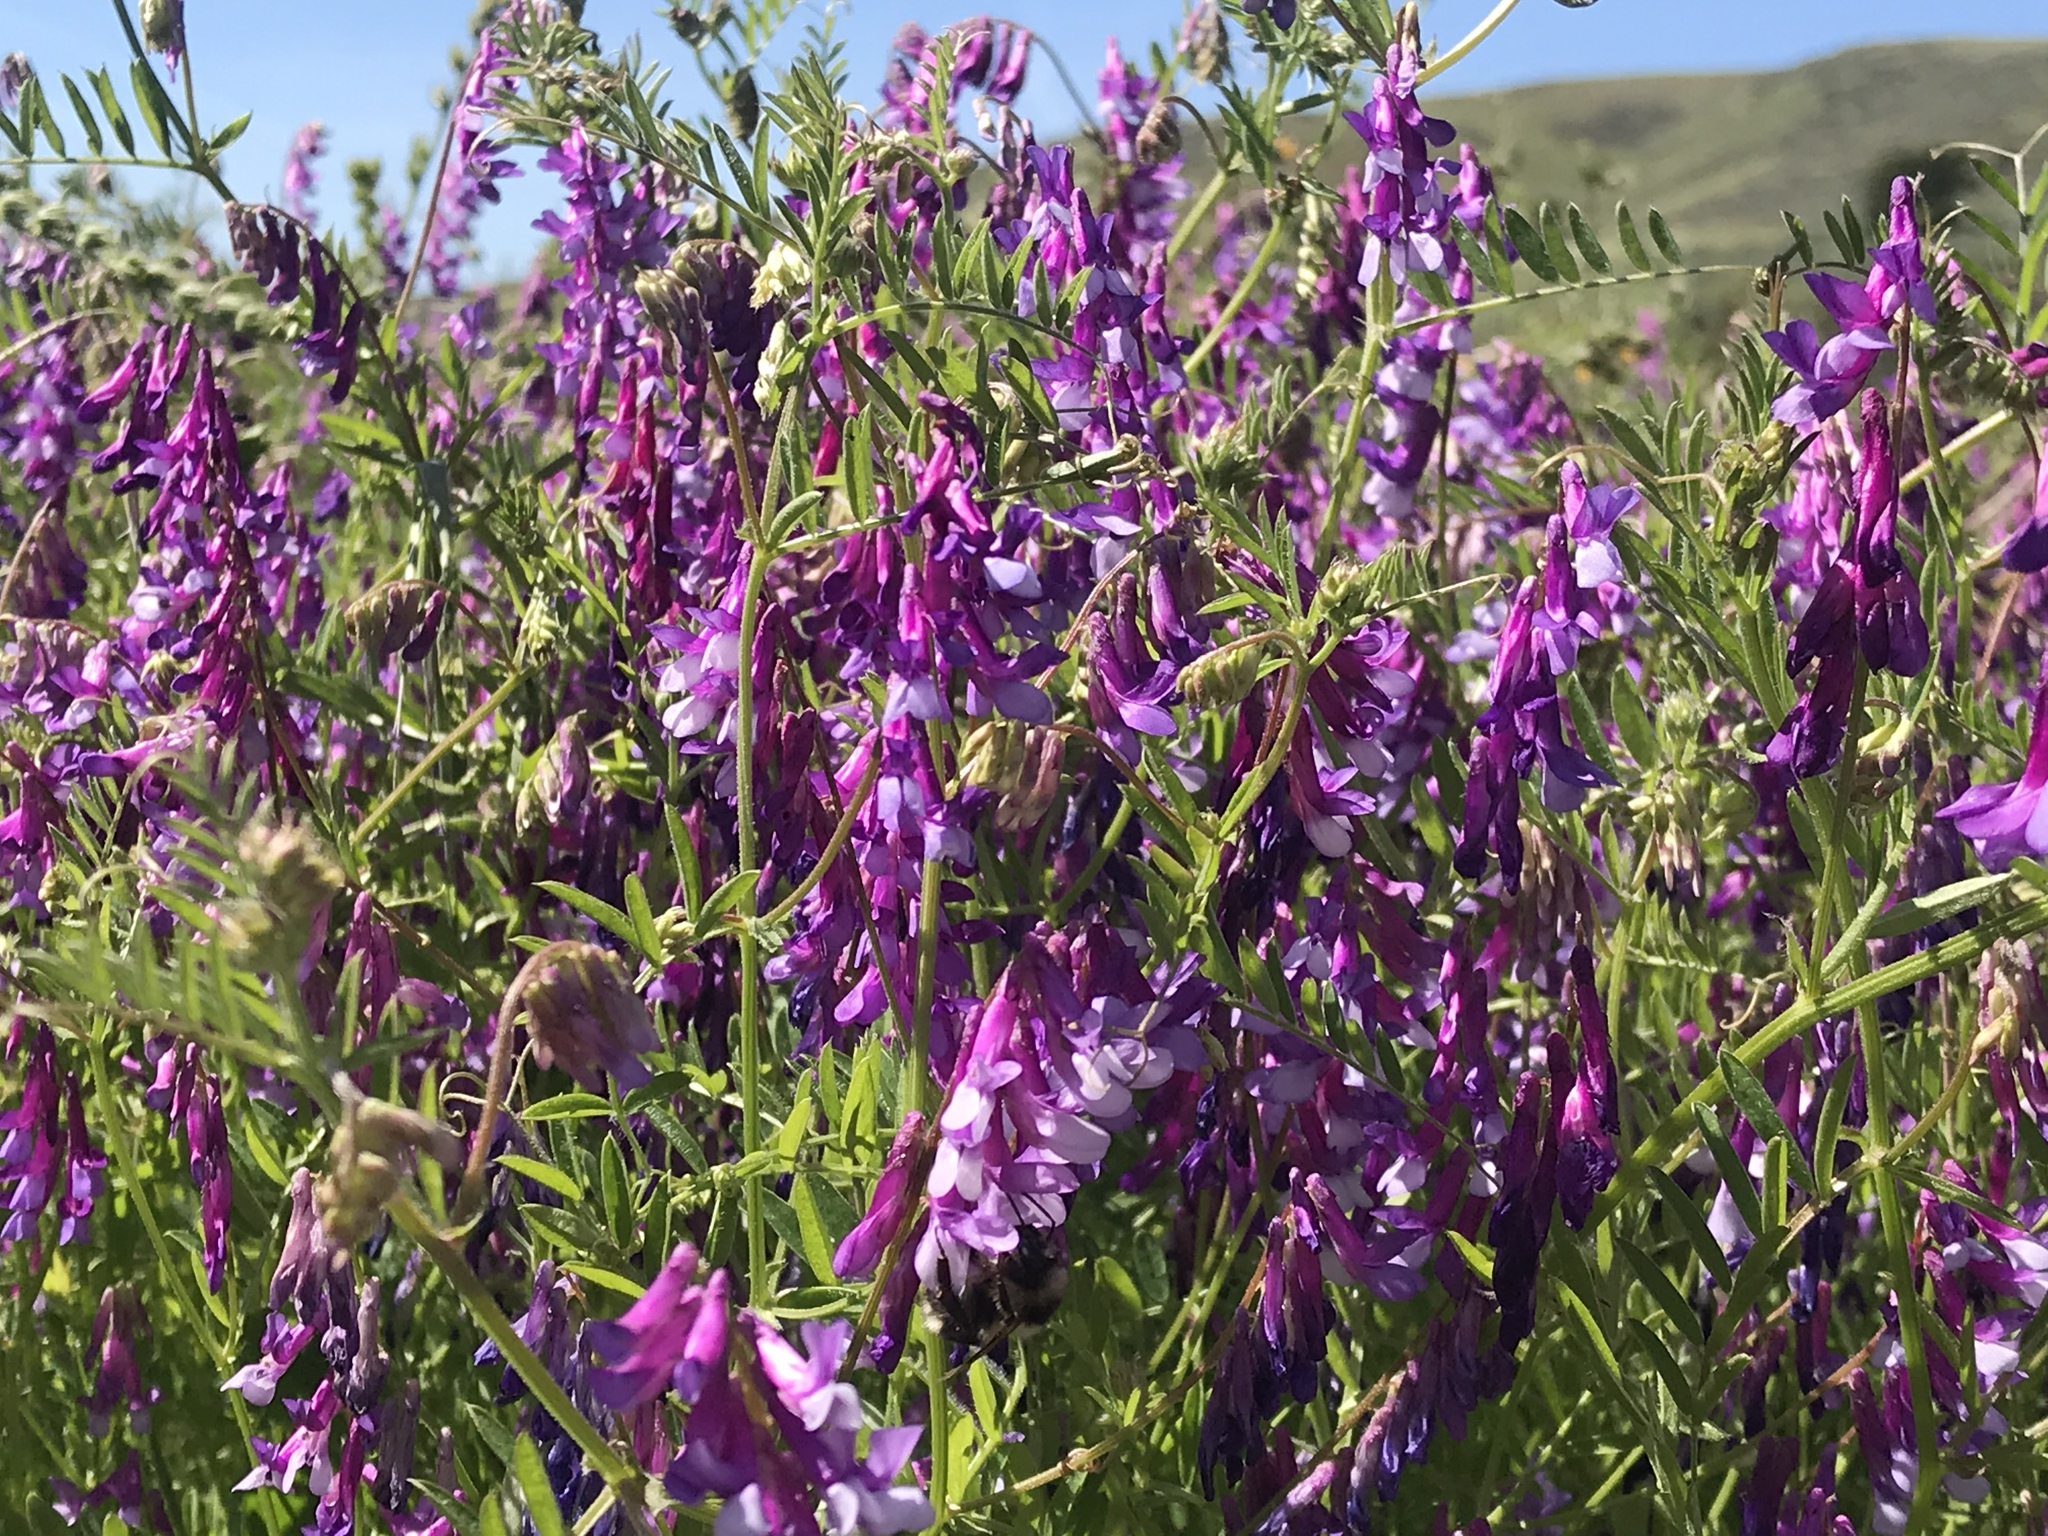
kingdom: Plantae
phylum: Tracheophyta
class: Magnoliopsida
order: Fabales
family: Fabaceae
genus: Vicia
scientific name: Vicia villosa
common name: Fodder vetch
